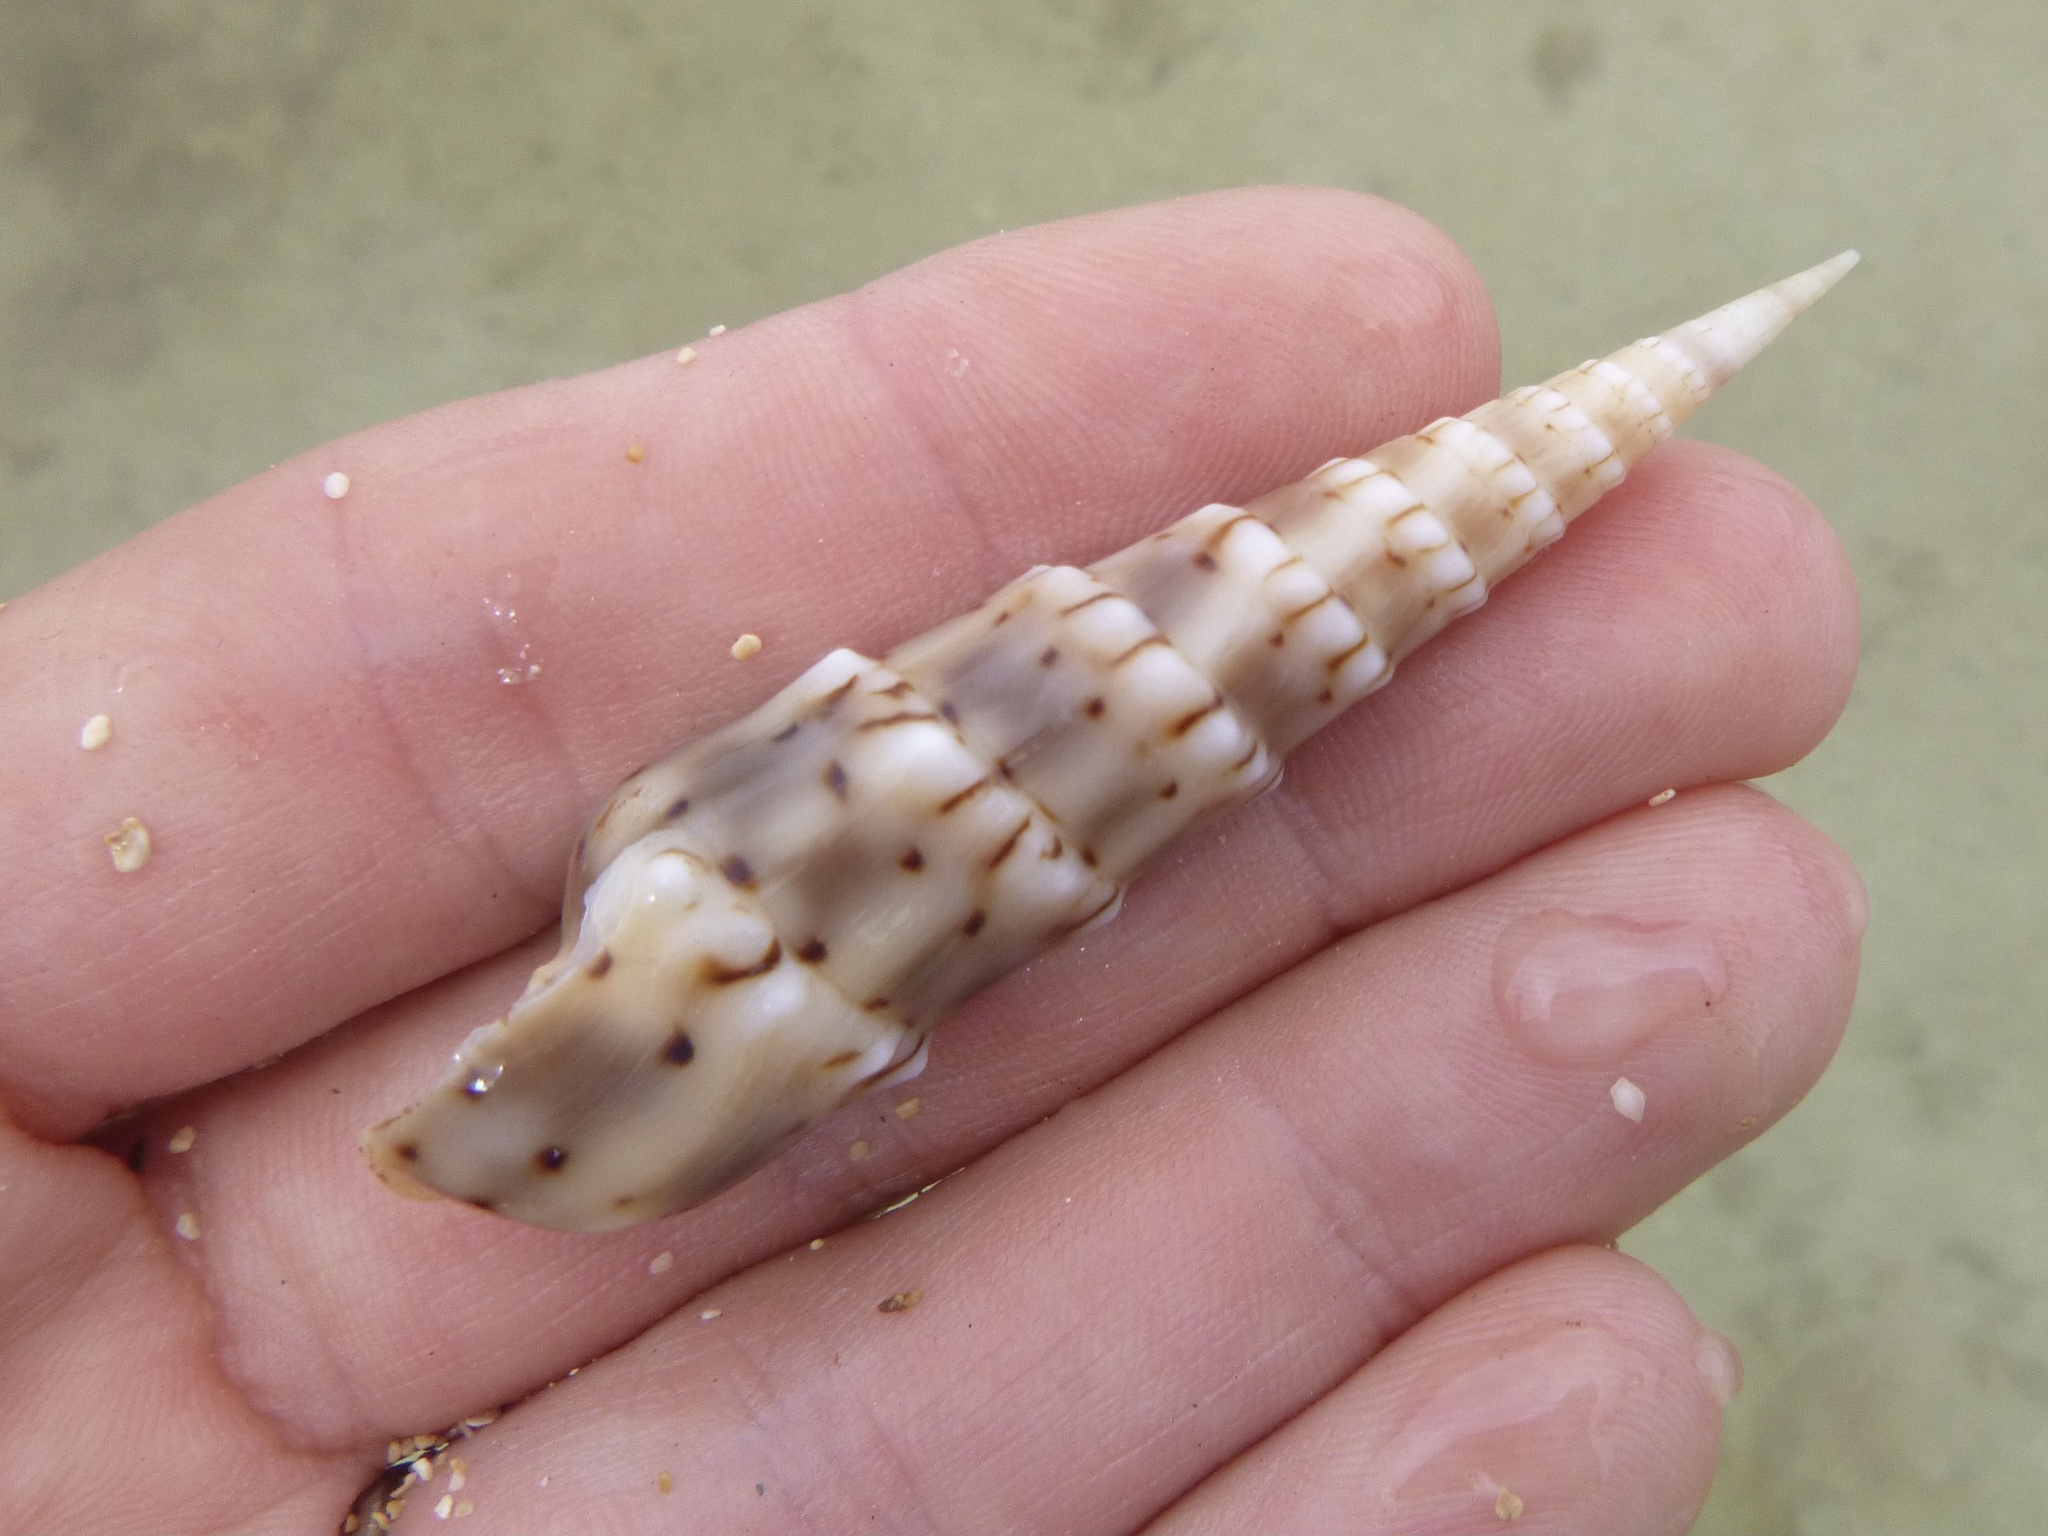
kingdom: Animalia
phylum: Mollusca
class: Gastropoda
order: Neogastropoda
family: Terebridae
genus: Oxymeris
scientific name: Oxymeris crenulata
